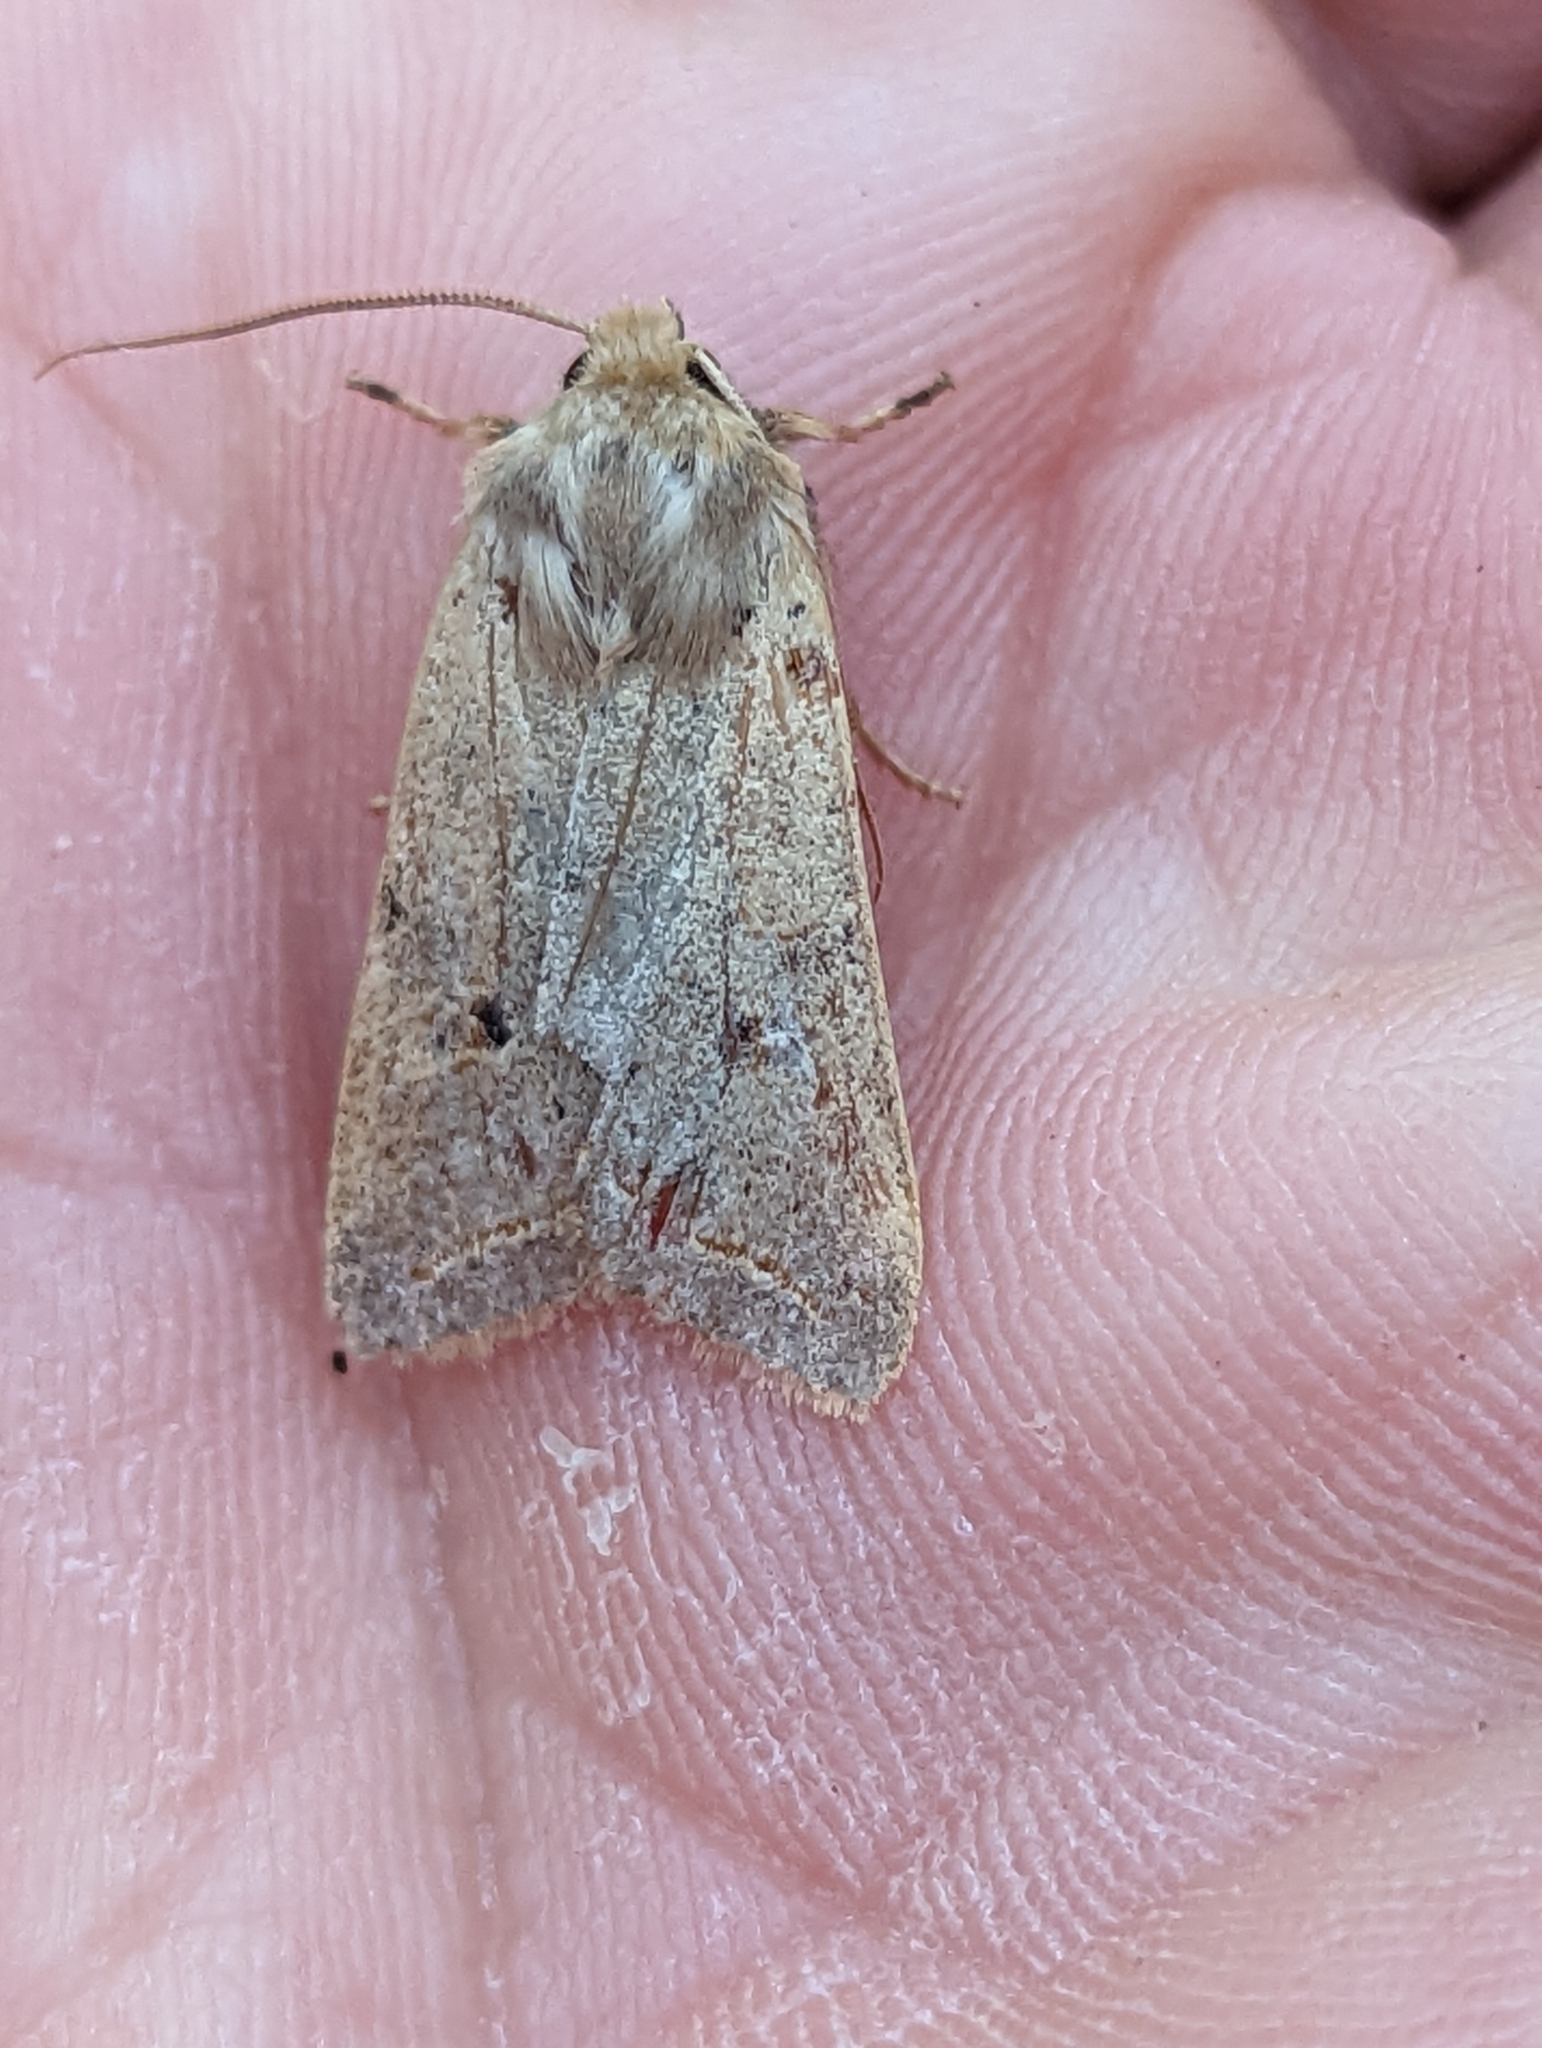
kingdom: Animalia
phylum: Arthropoda
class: Insecta
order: Lepidoptera
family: Noctuidae
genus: Agrochola
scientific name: Agrochola macilenta
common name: Yellow-line quaker
